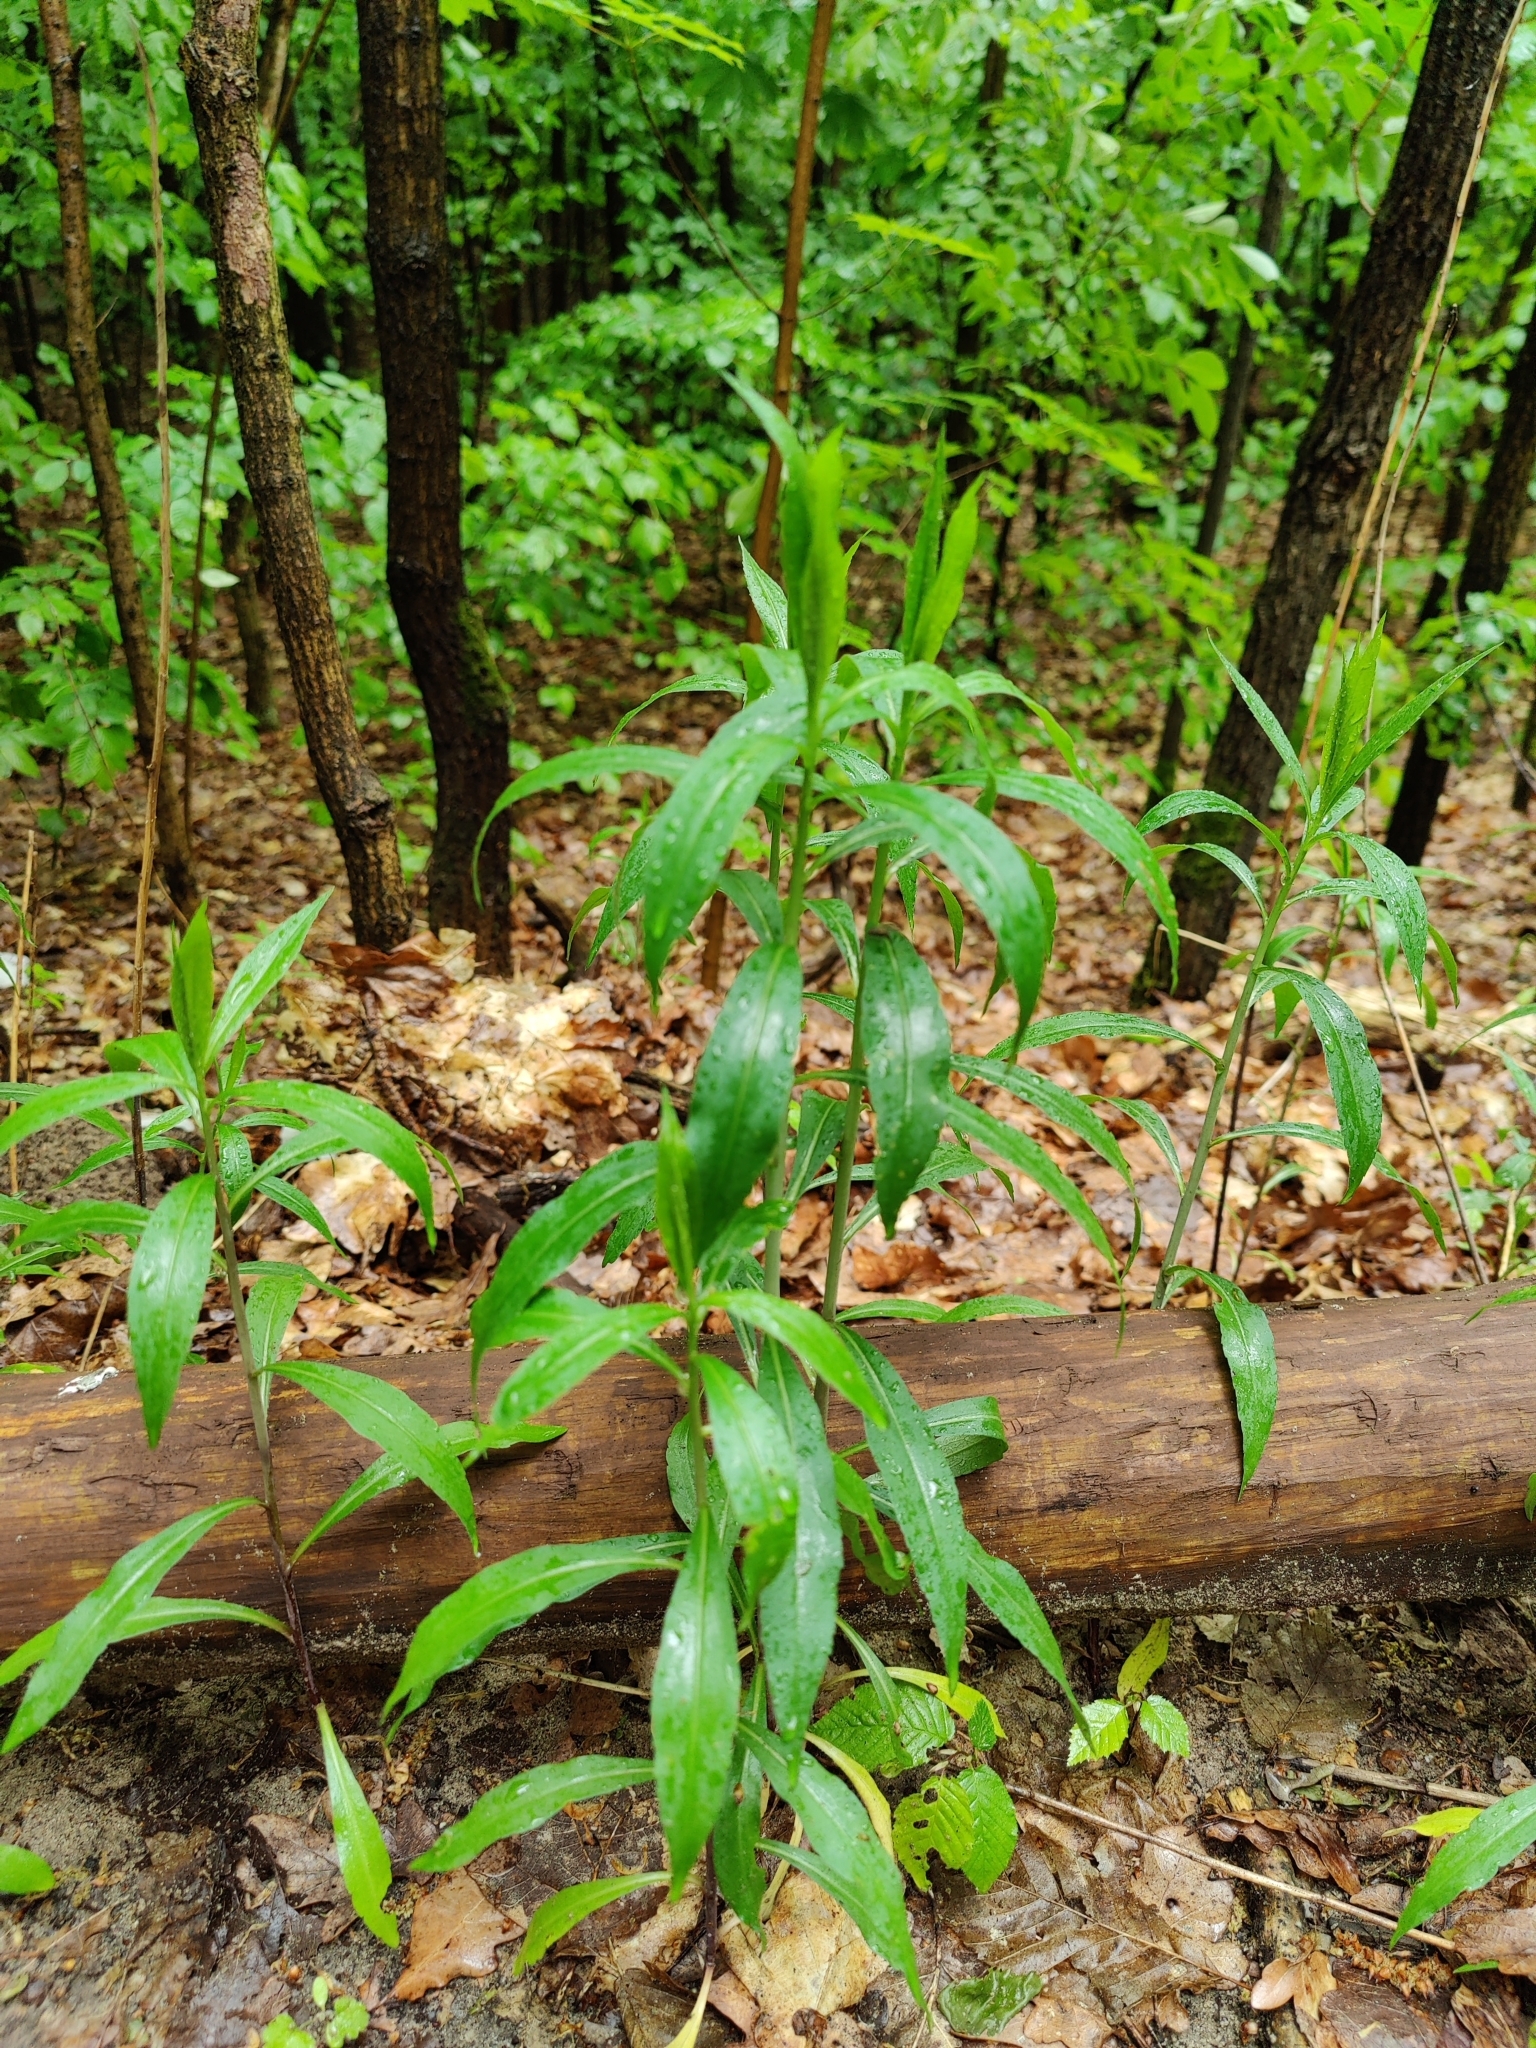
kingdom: Plantae
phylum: Tracheophyta
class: Magnoliopsida
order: Asterales
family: Asteraceae
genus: Solidago
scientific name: Solidago gigantea
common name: Giant goldenrod
